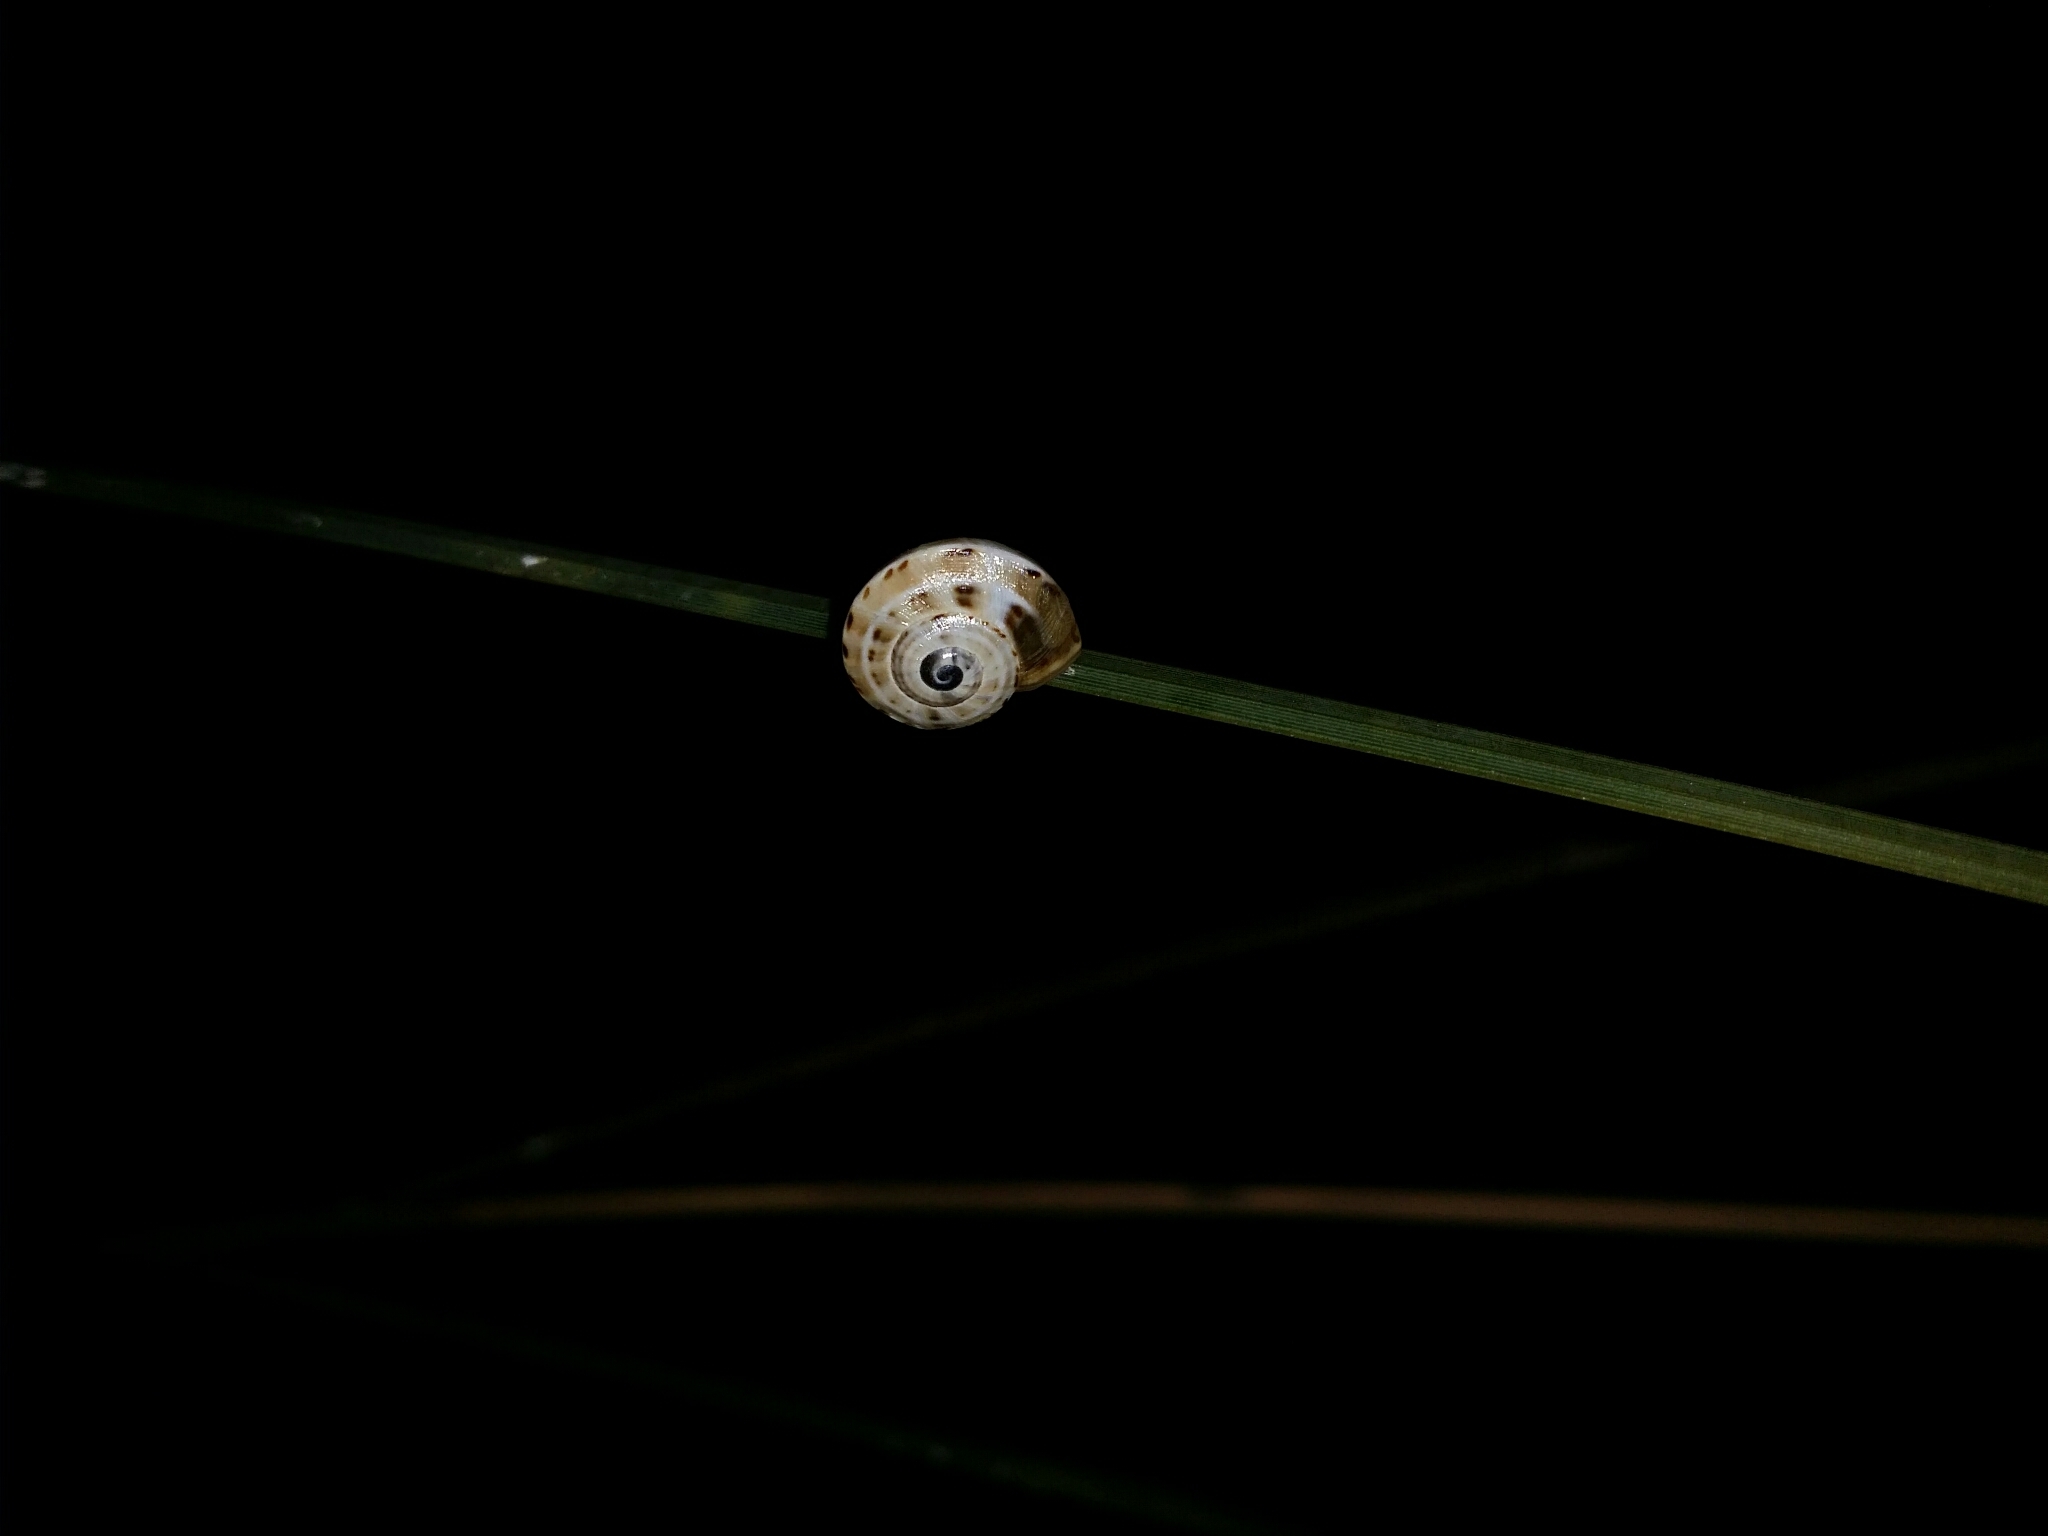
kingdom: Animalia
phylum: Mollusca
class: Gastropoda
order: Stylommatophora
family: Helicidae
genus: Theba
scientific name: Theba pisana
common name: White snail
